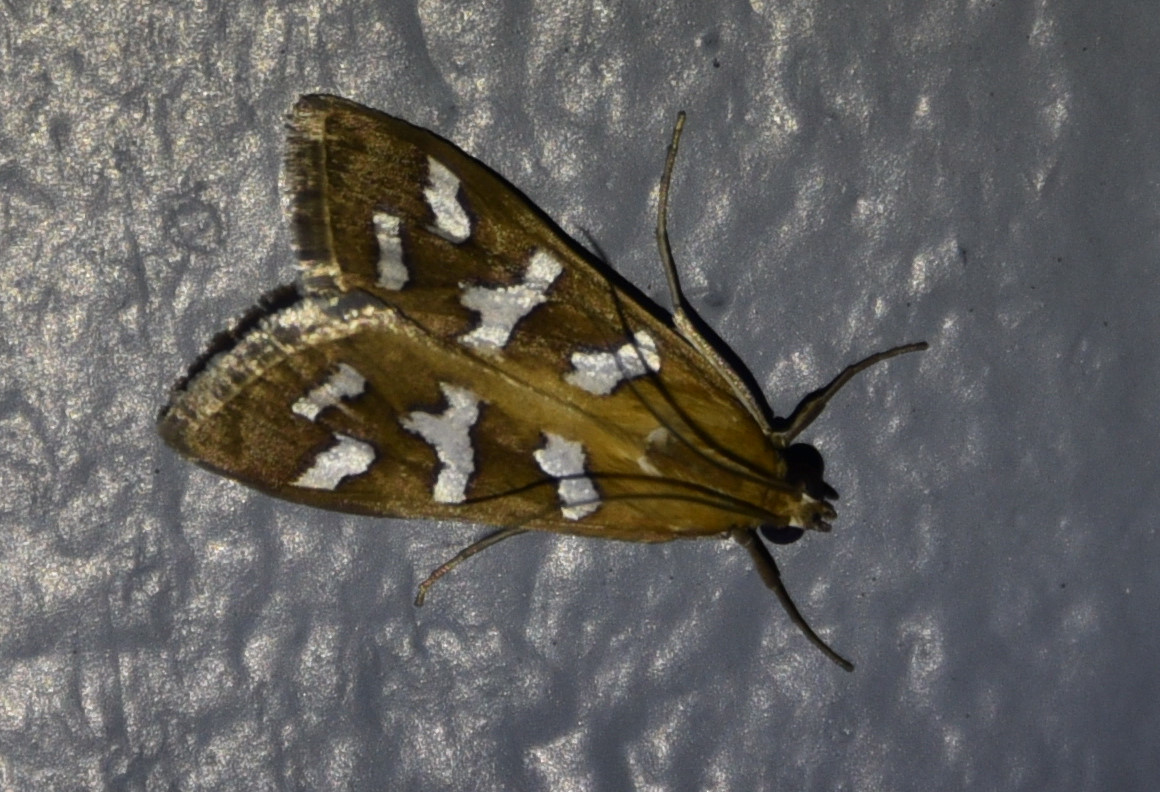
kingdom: Animalia
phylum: Arthropoda
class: Insecta
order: Lepidoptera
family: Crambidae
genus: Diastictis
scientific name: Diastictis fracturalis
